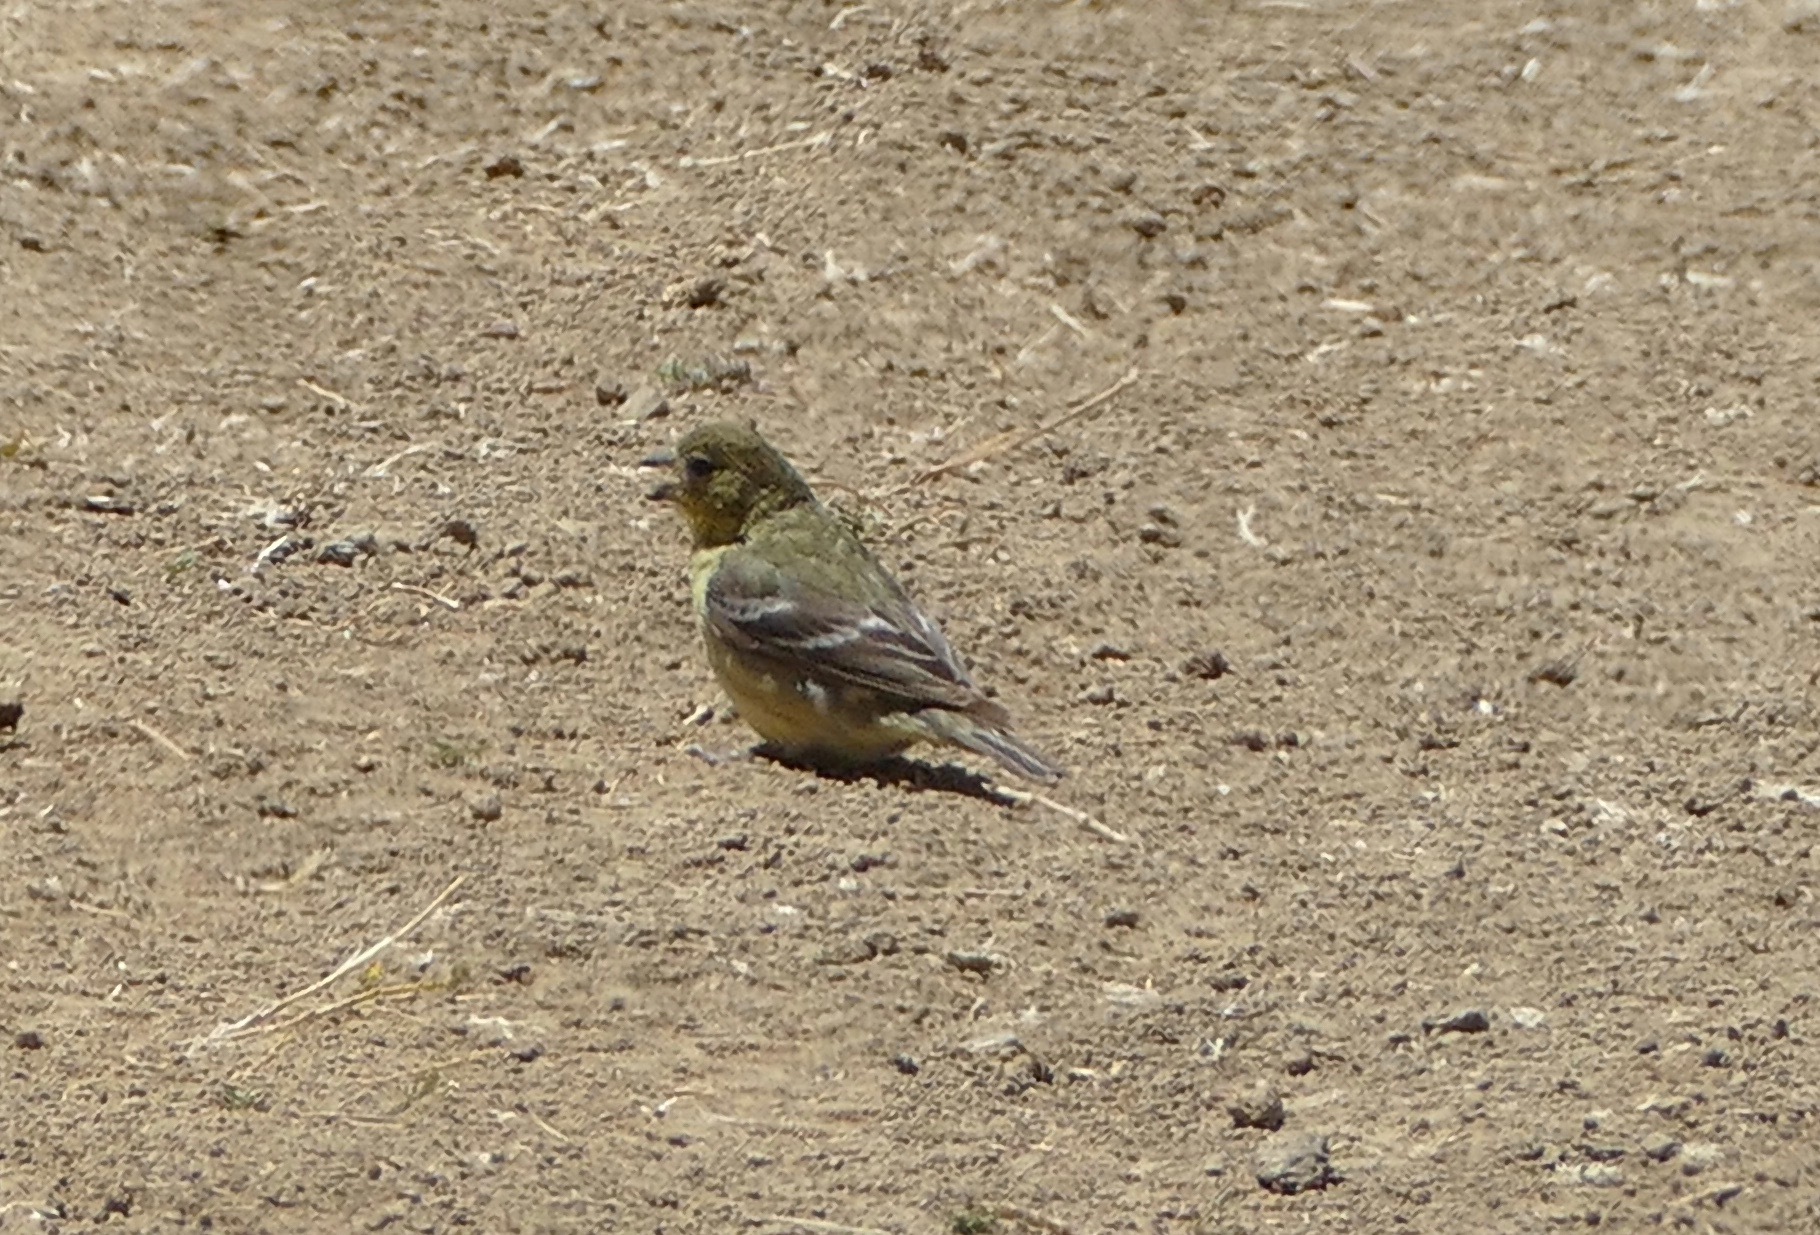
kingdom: Animalia
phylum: Chordata
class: Aves
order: Passeriformes
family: Fringillidae
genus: Spinus
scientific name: Spinus psaltria
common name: Lesser goldfinch
